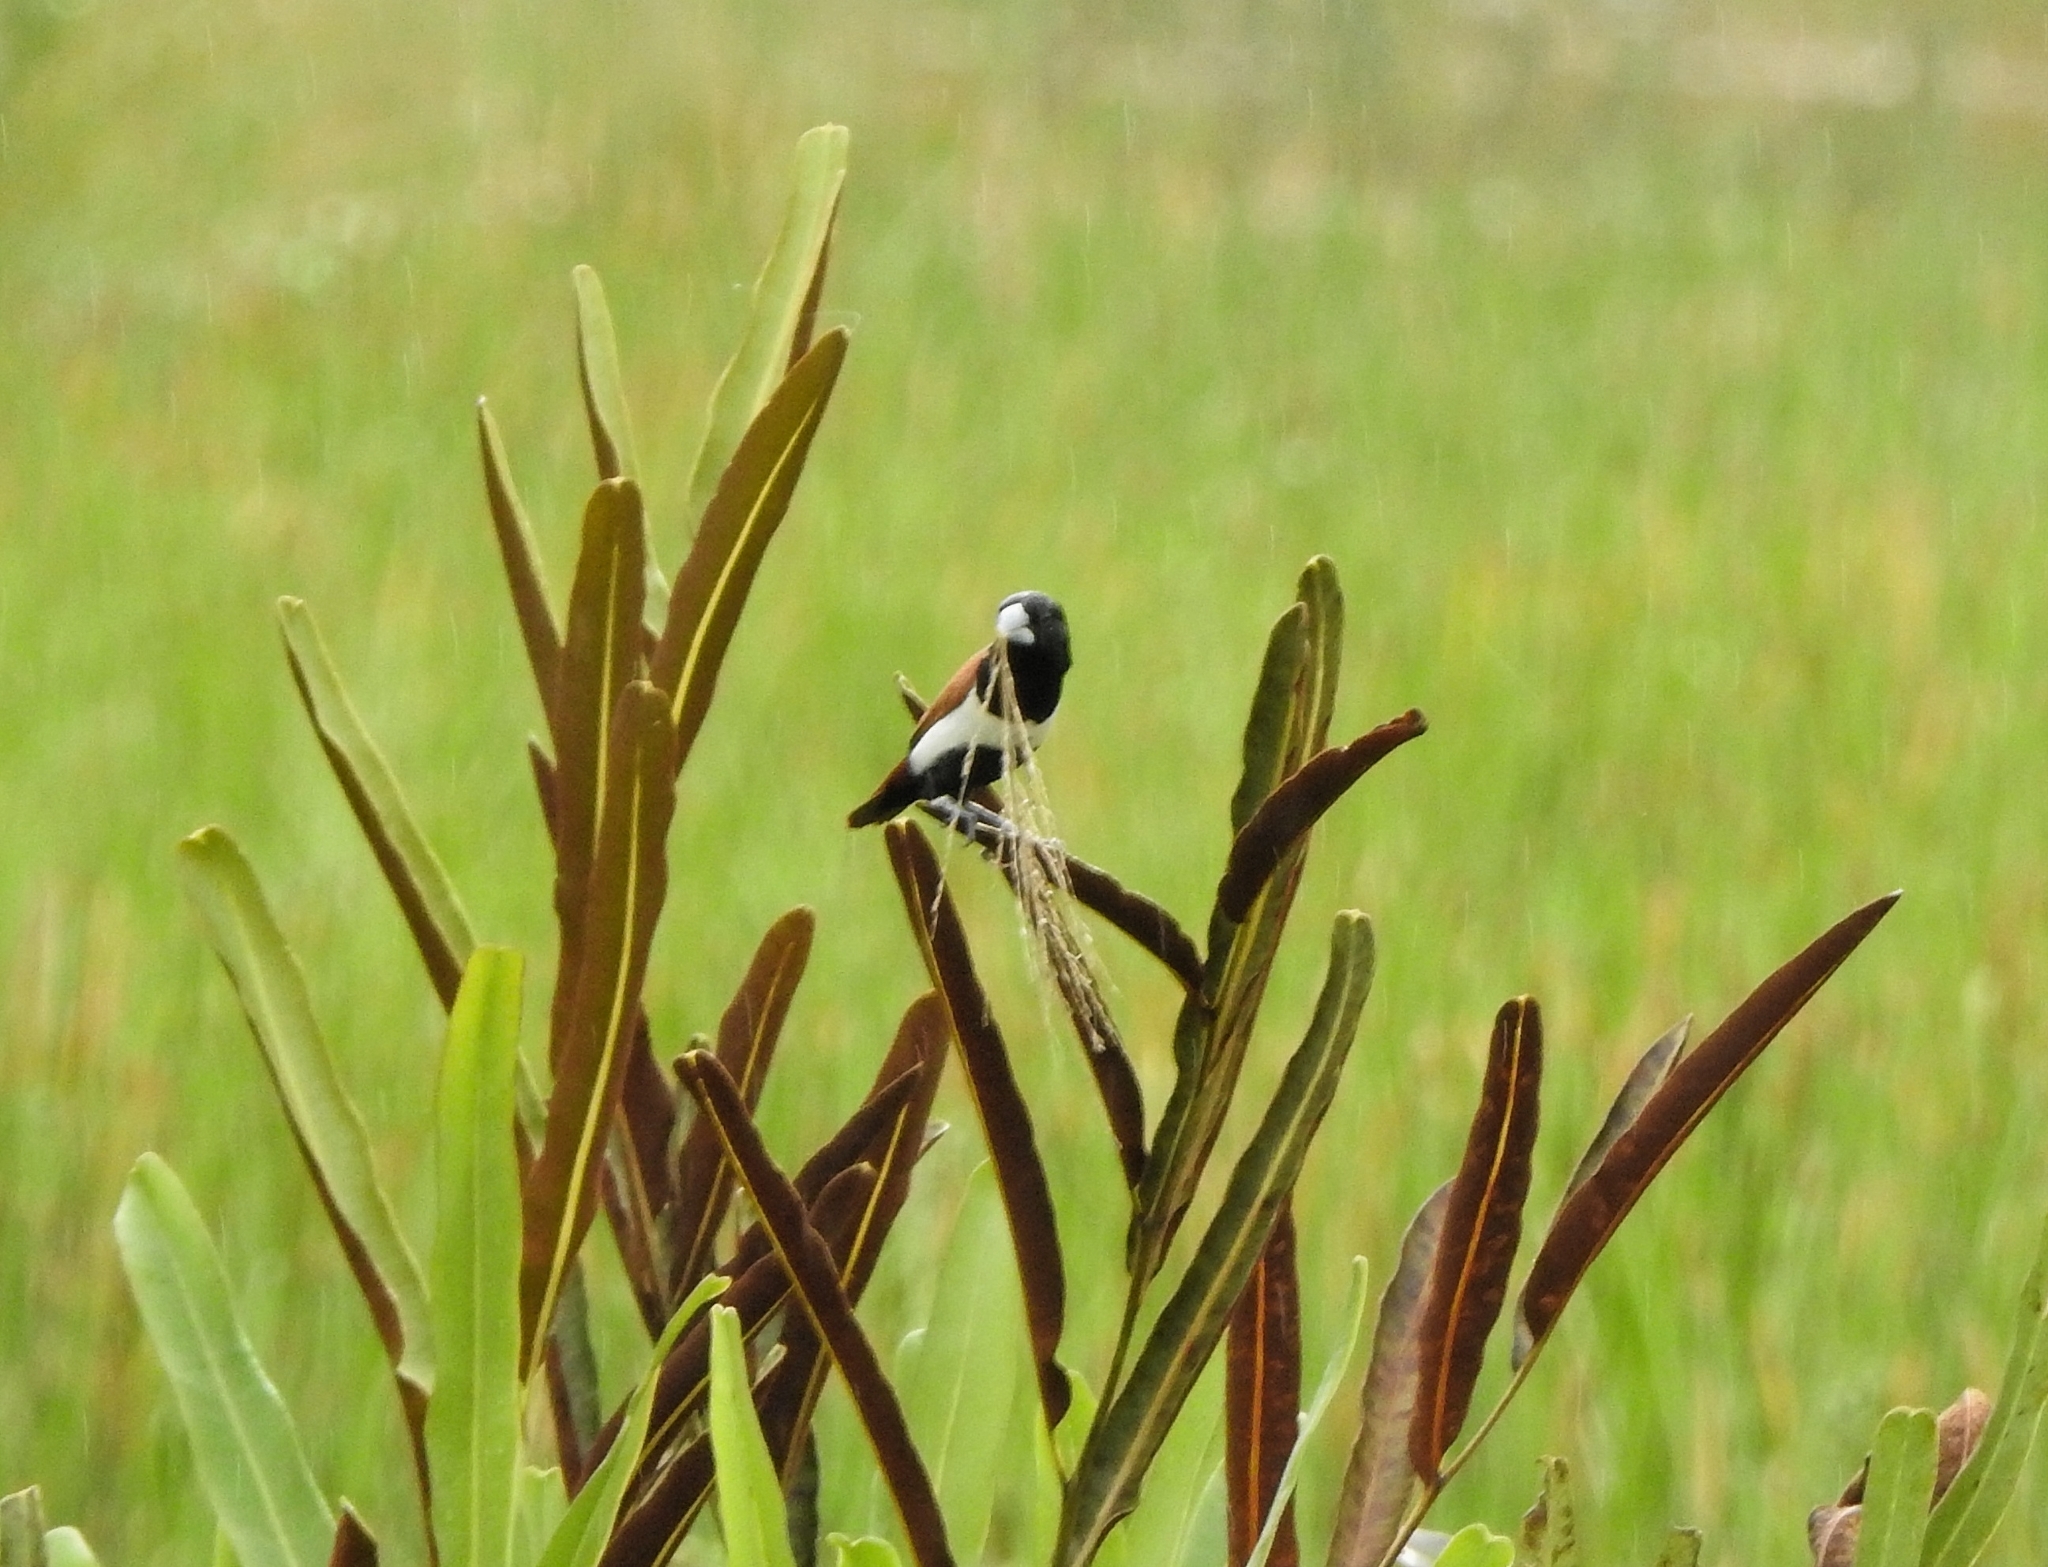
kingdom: Animalia
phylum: Chordata
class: Aves
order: Passeriformes
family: Estrildidae
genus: Lonchura
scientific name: Lonchura malacca
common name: Tricolored munia
